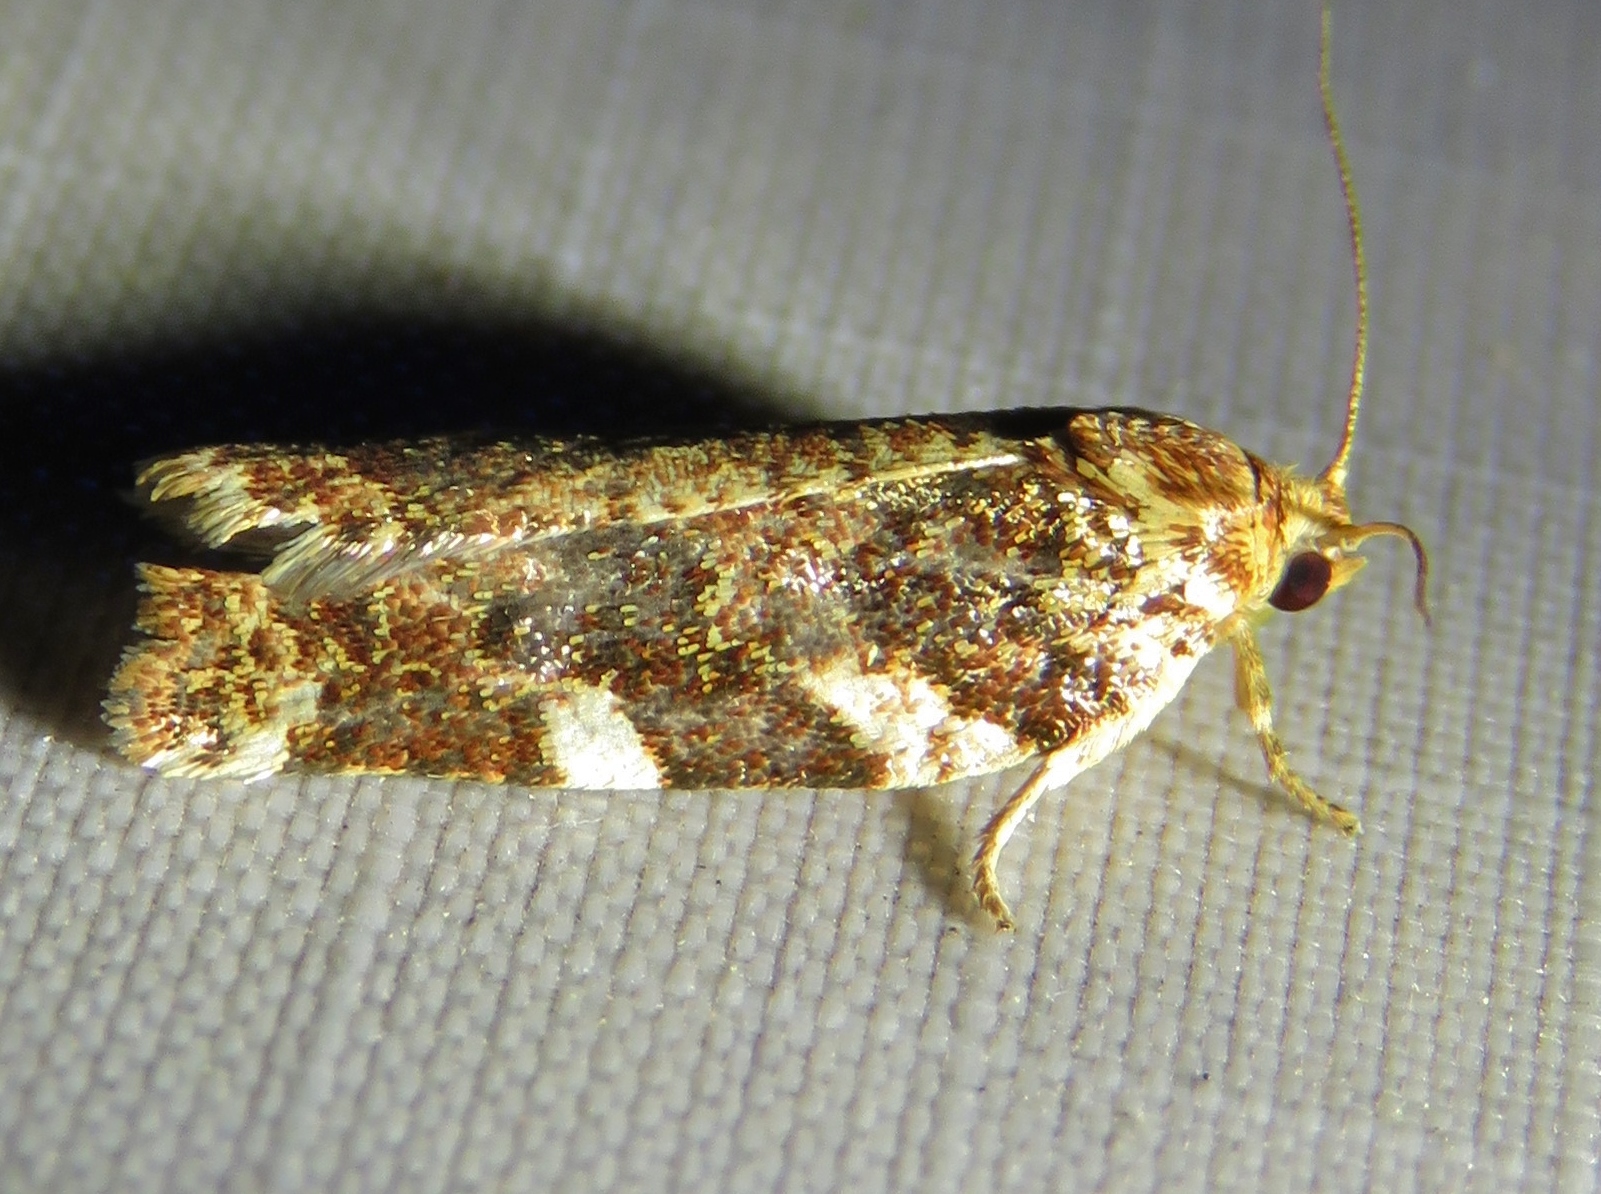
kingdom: Animalia
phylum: Arthropoda
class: Insecta
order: Lepidoptera
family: Tortricidae
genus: Archips
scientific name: Archips argyrospila
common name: Fruit-tree leafroller moth
